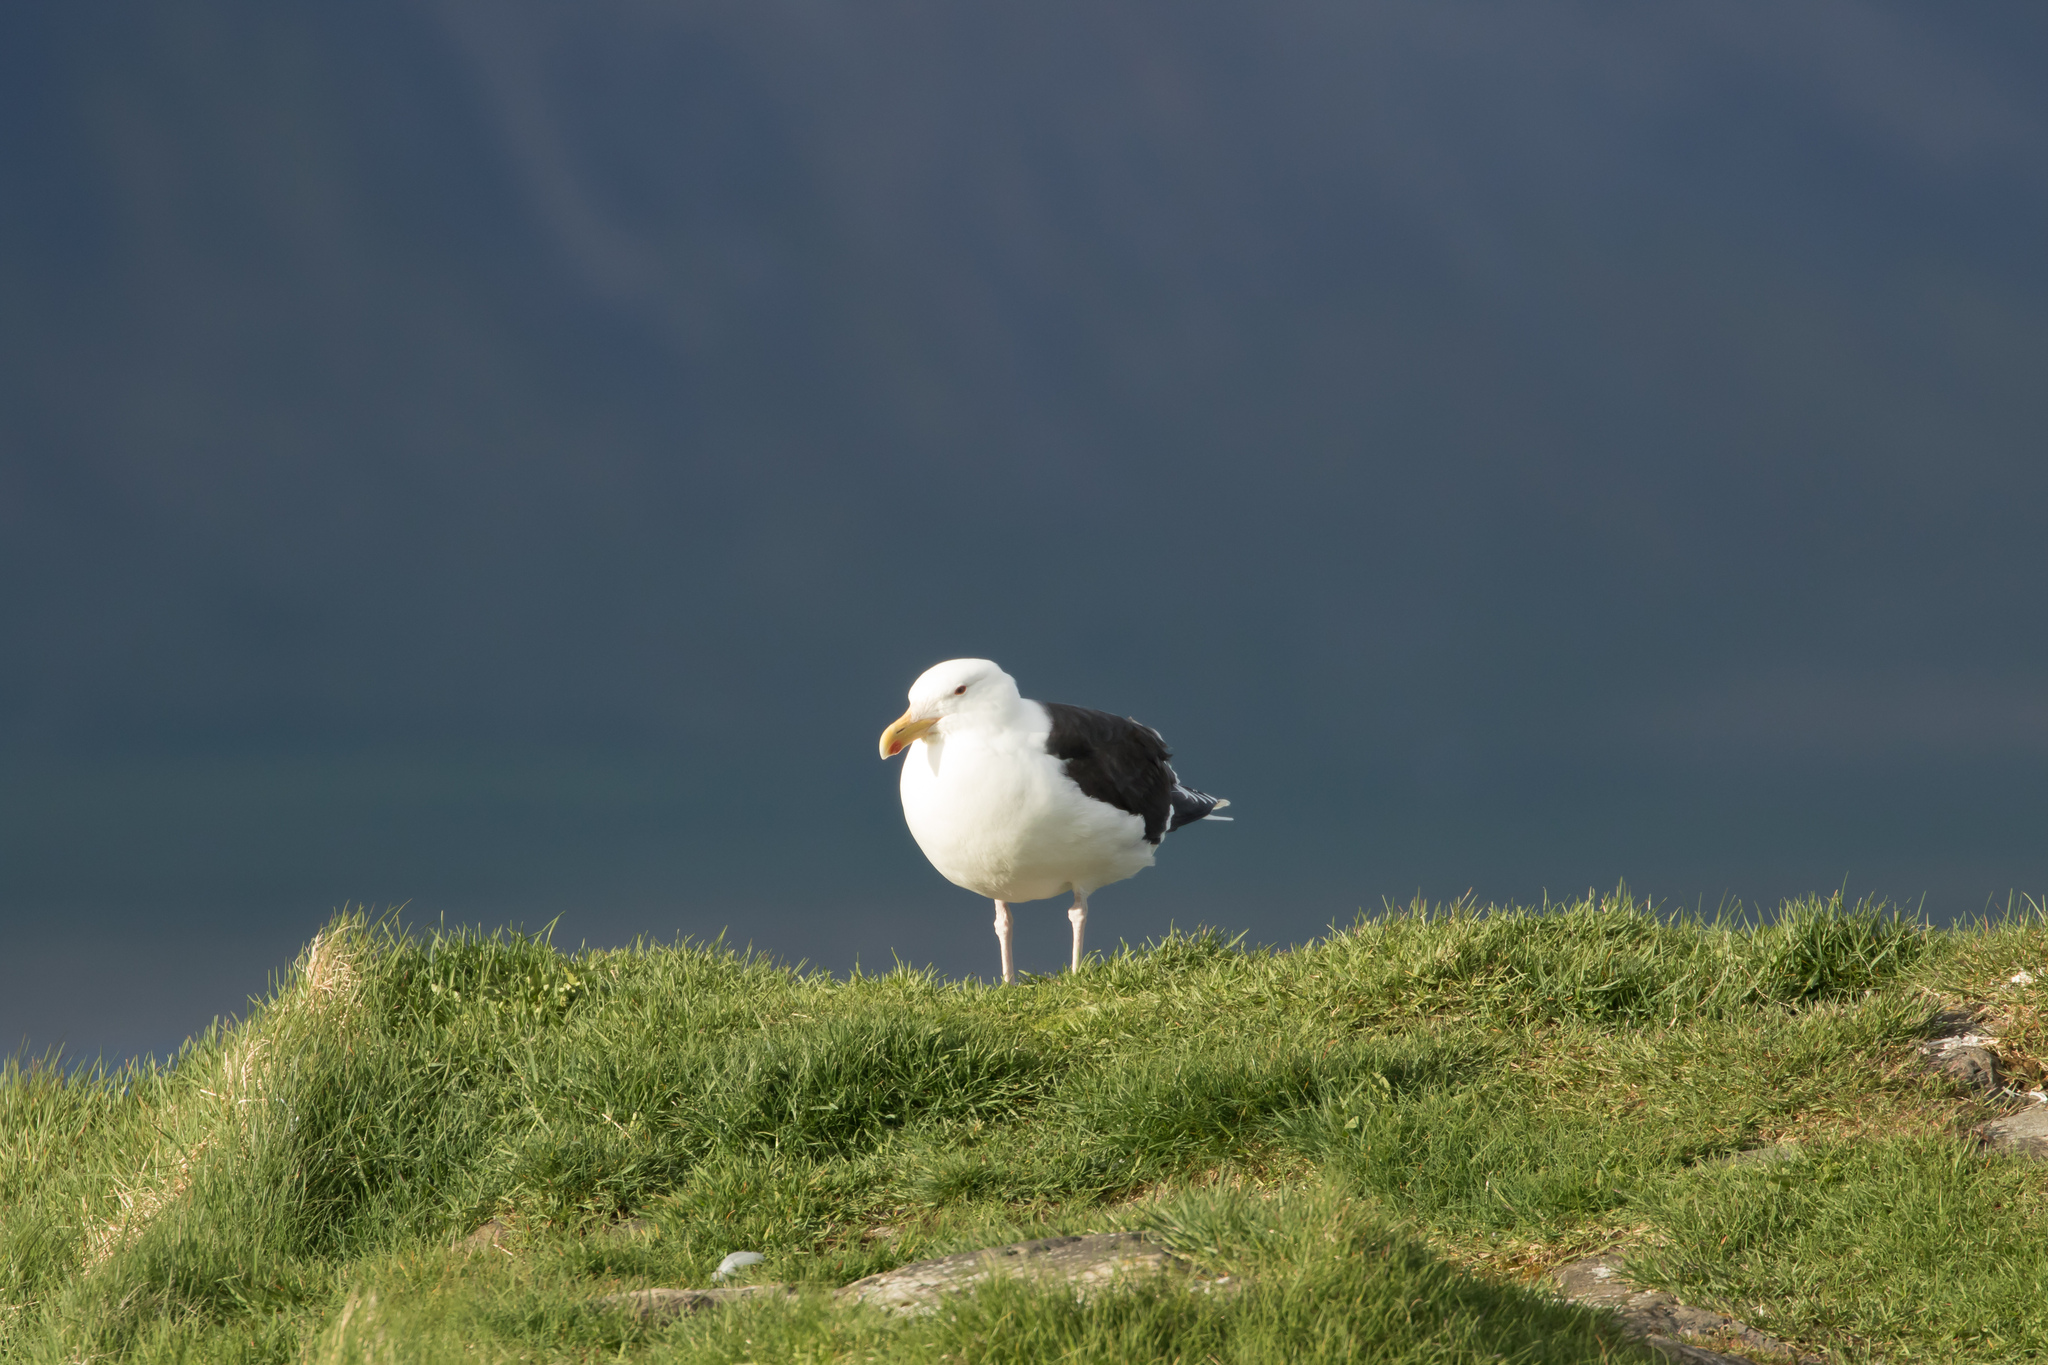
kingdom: Animalia
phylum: Chordata
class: Aves
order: Charadriiformes
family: Laridae
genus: Larus
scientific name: Larus marinus
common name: Great black-backed gull
